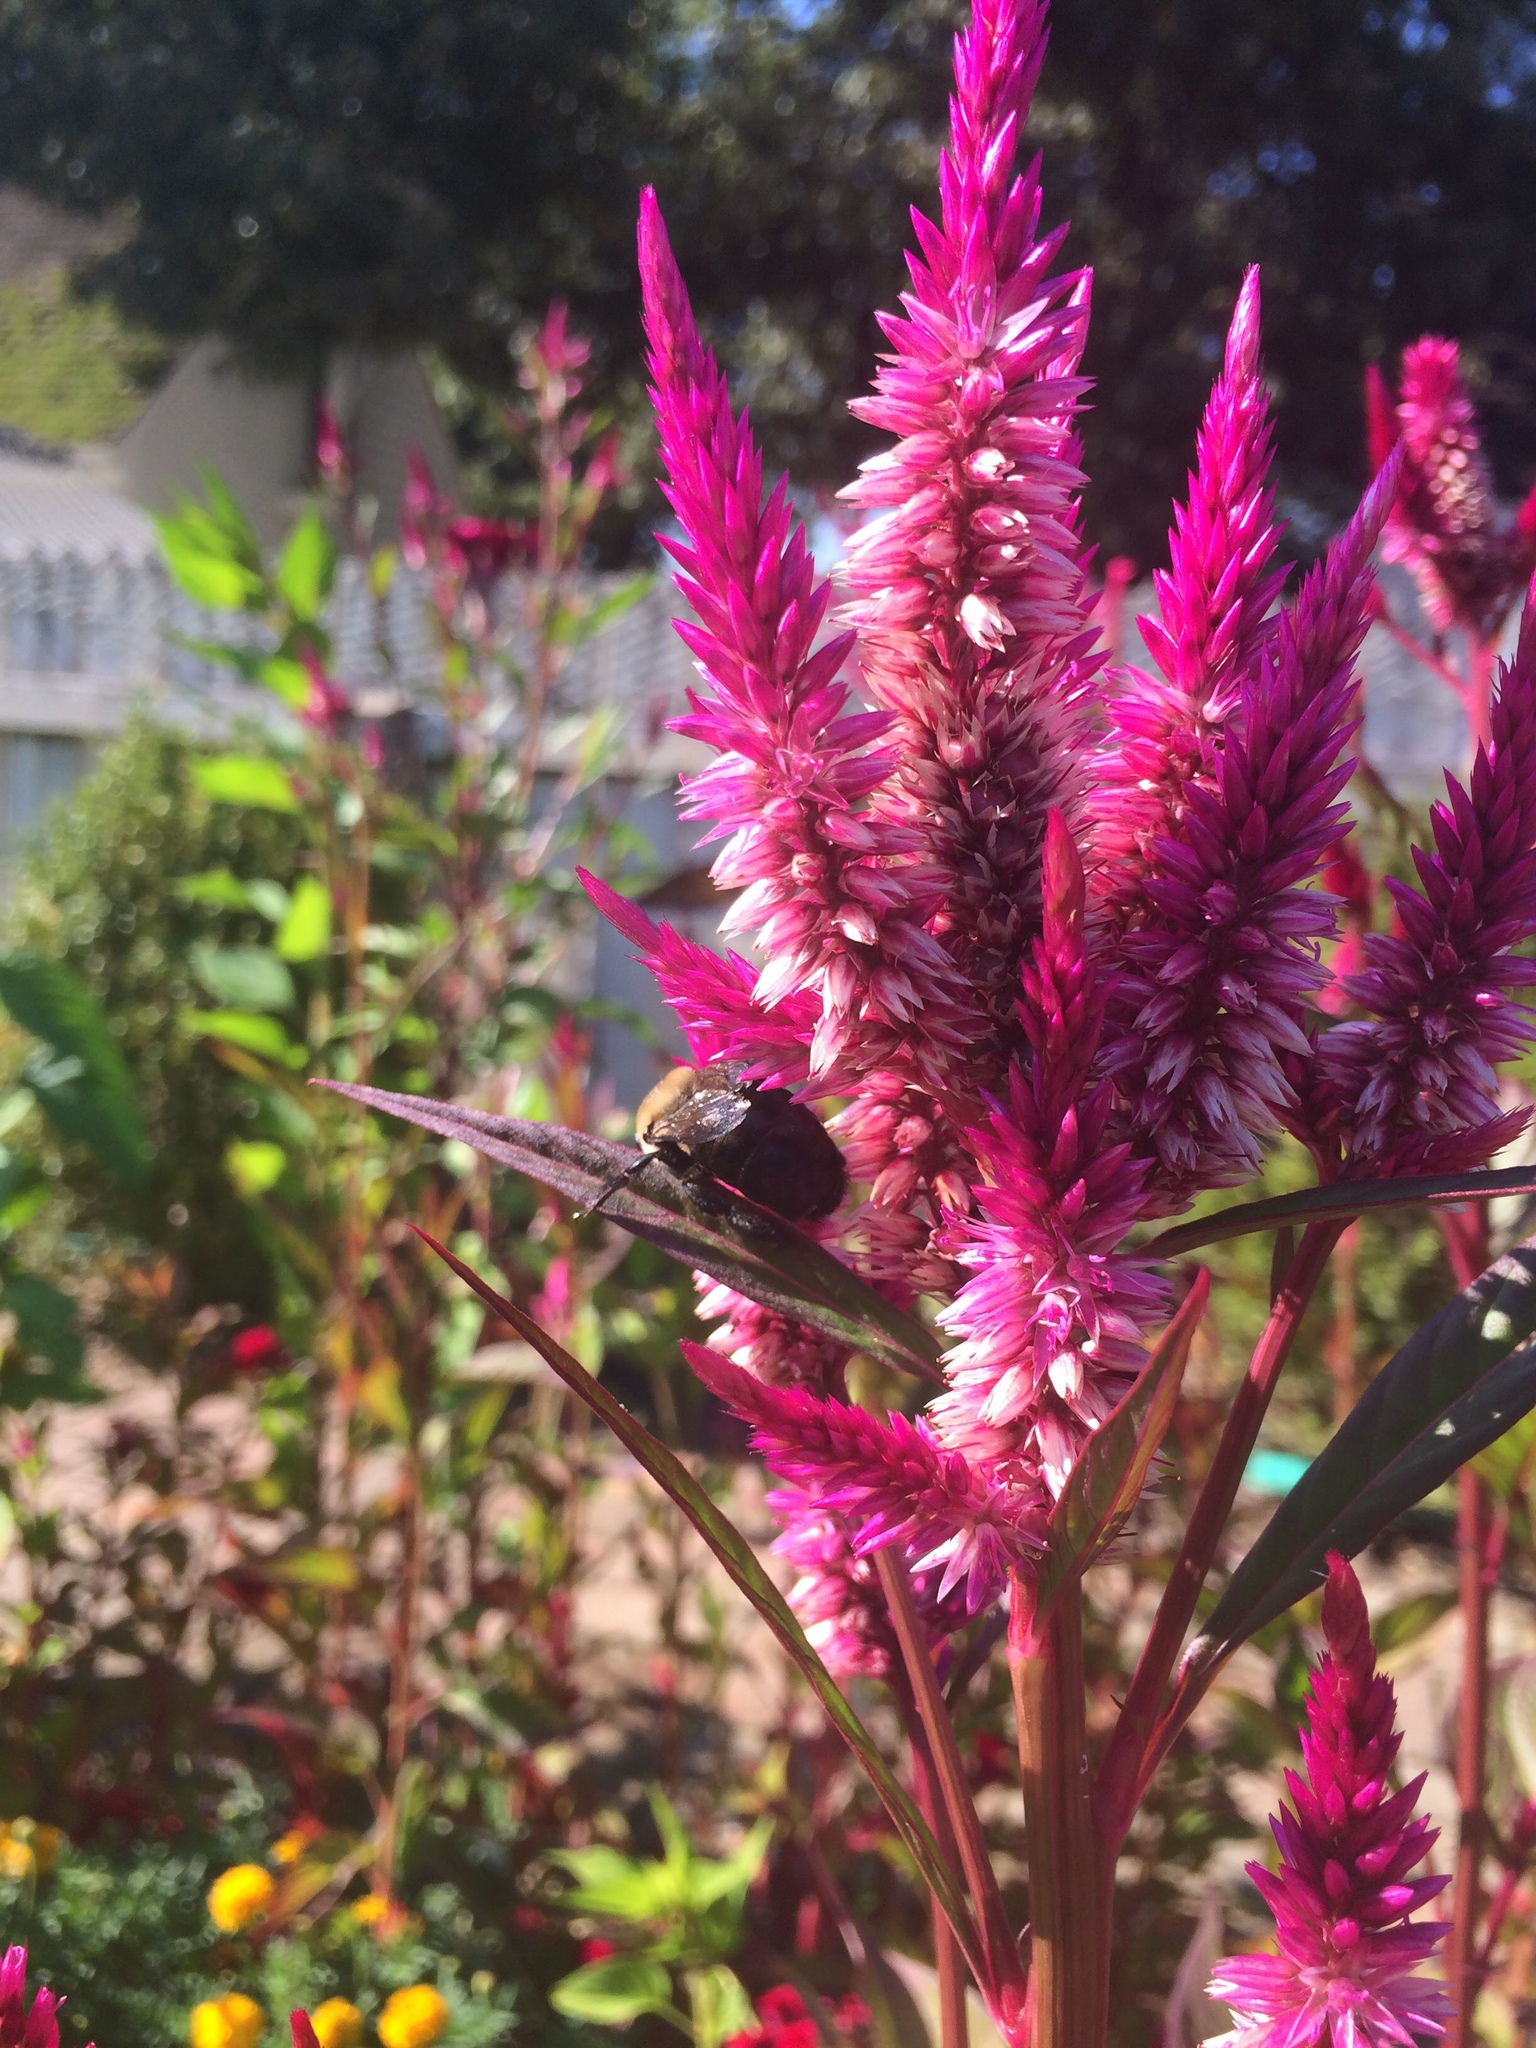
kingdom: Animalia
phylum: Arthropoda
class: Insecta
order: Hymenoptera
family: Apidae
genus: Xylocopa
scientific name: Xylocopa virginica
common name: Carpenter bee
